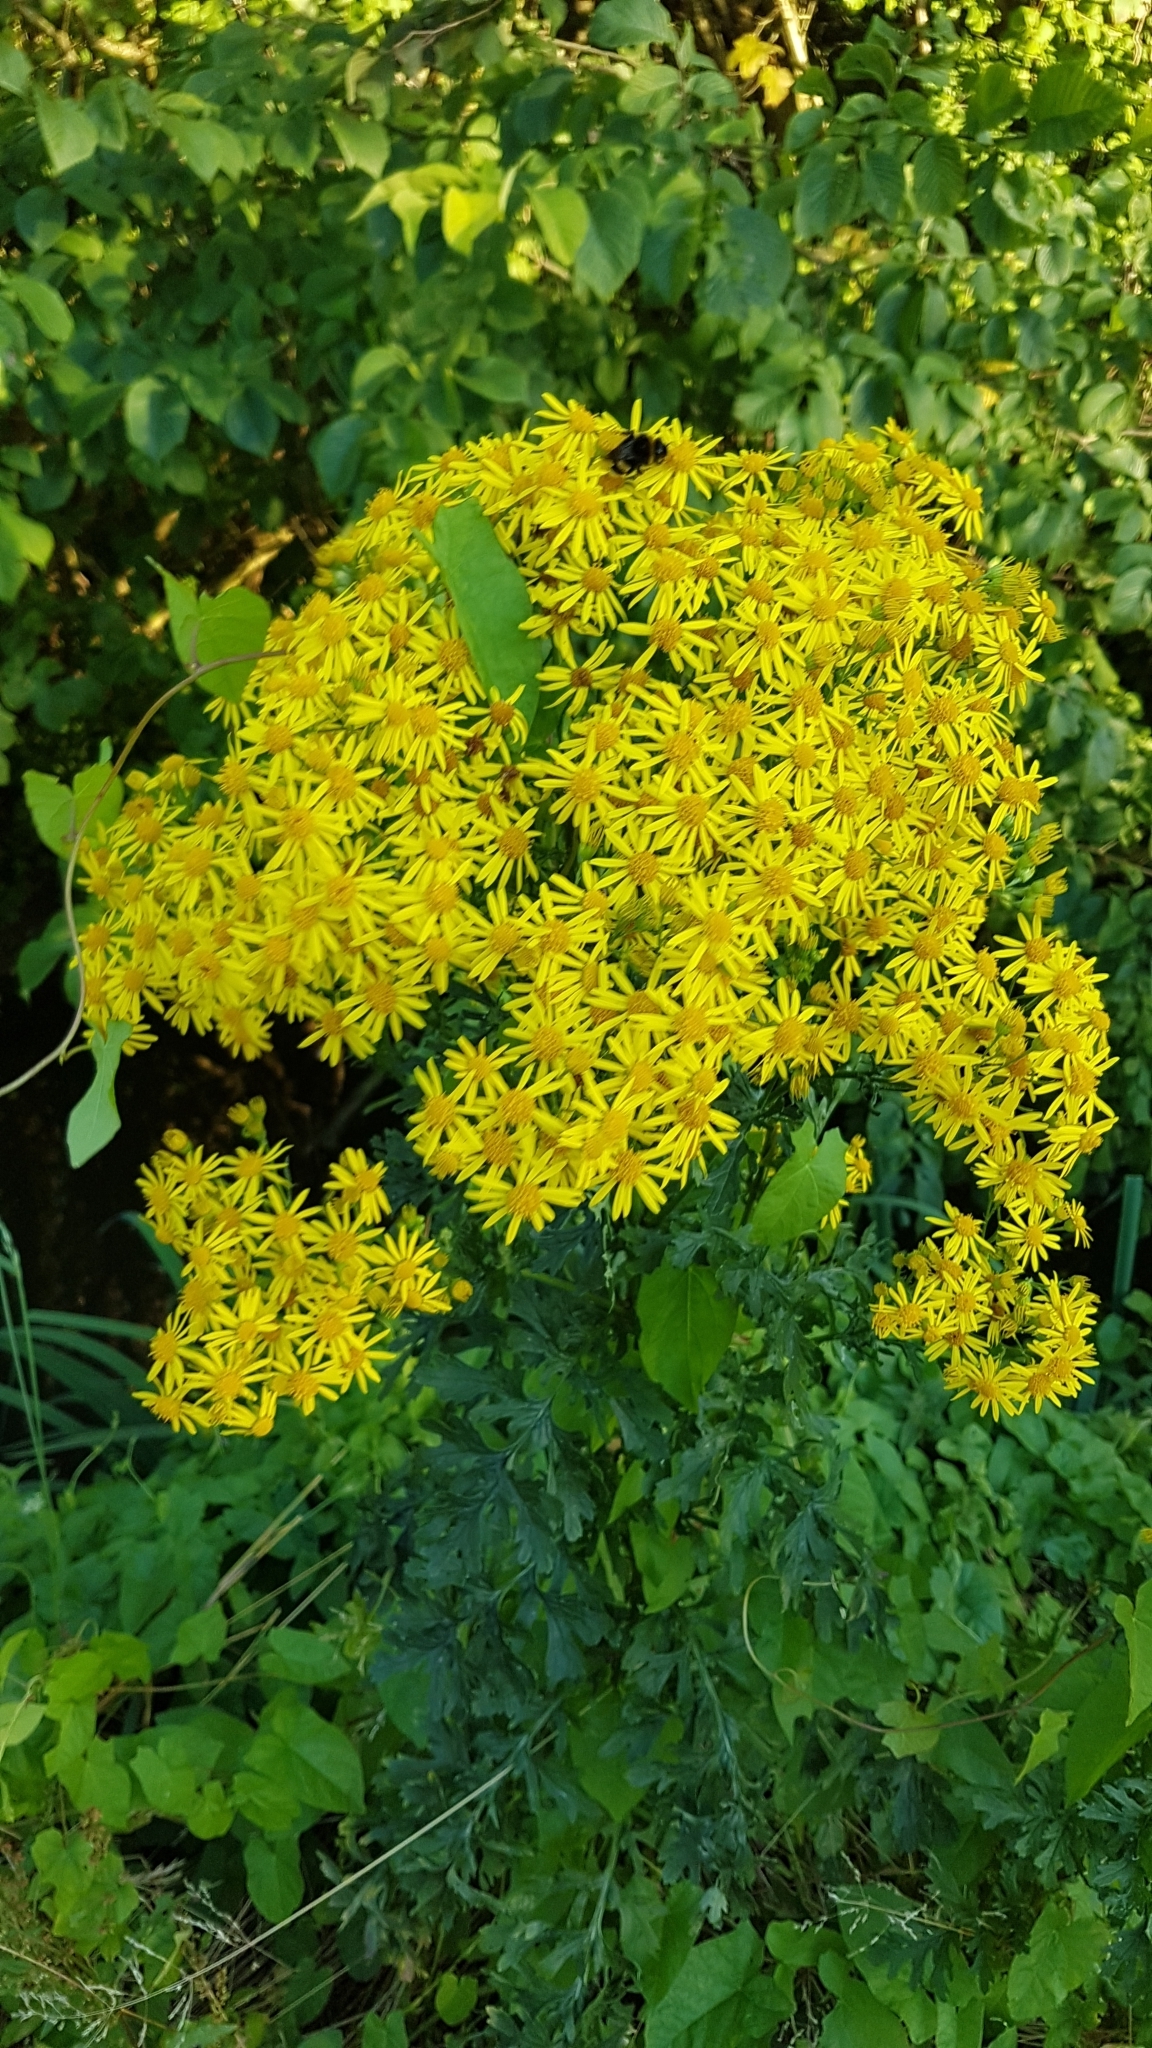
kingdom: Plantae
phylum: Tracheophyta
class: Magnoliopsida
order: Asterales
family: Asteraceae
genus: Jacobaea
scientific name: Jacobaea vulgaris
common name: Stinking willie
